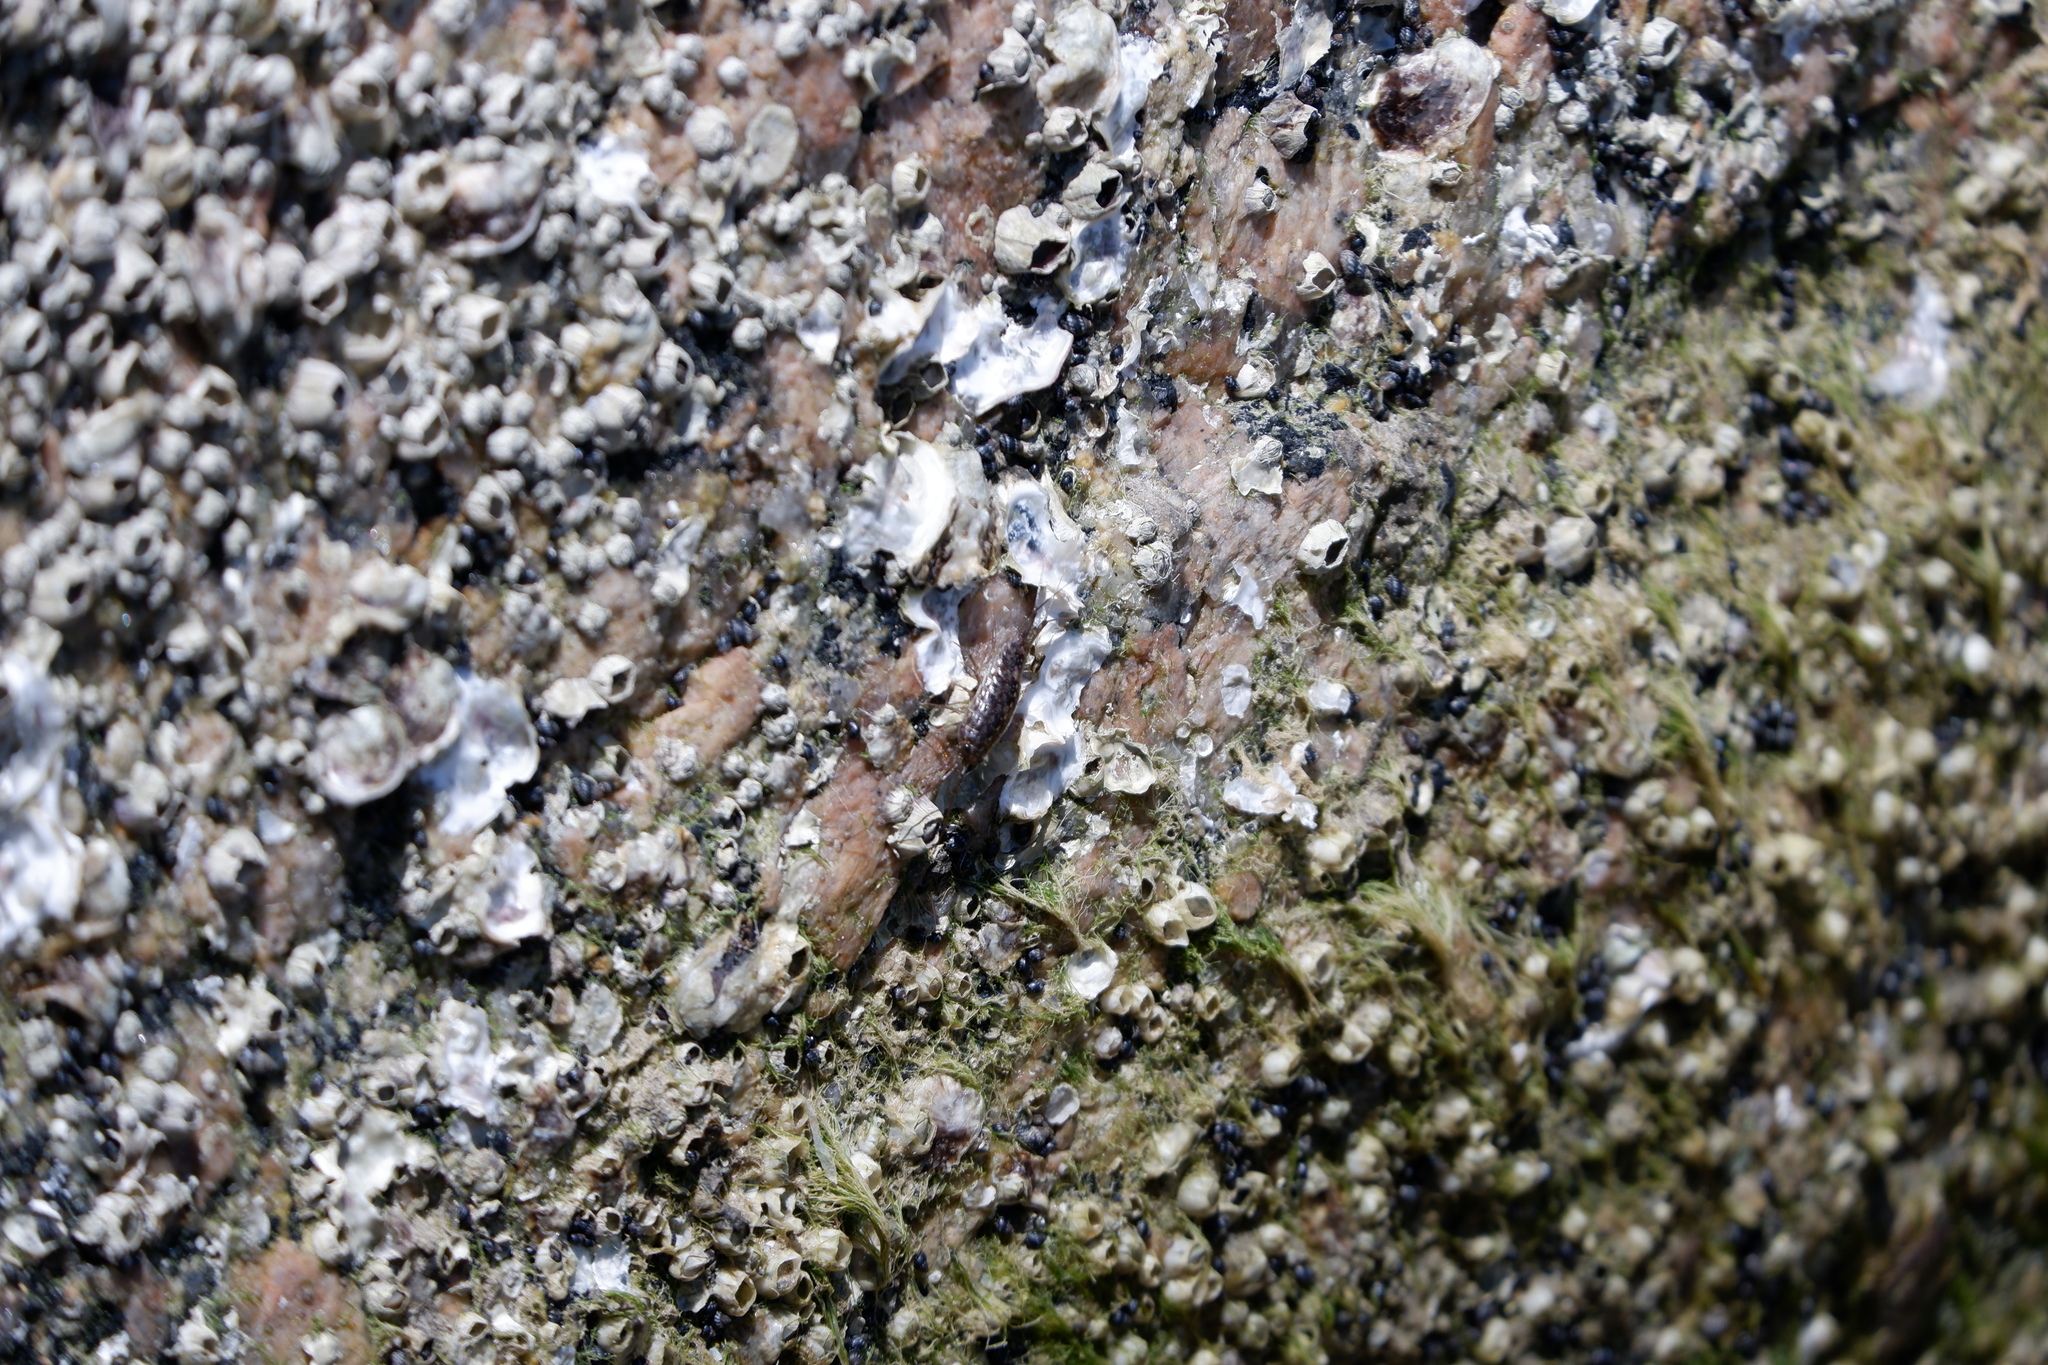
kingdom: Animalia
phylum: Arthropoda
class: Malacostraca
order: Isopoda
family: Ligiidae
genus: Ligia
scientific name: Ligia exotica
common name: Wharf roach
